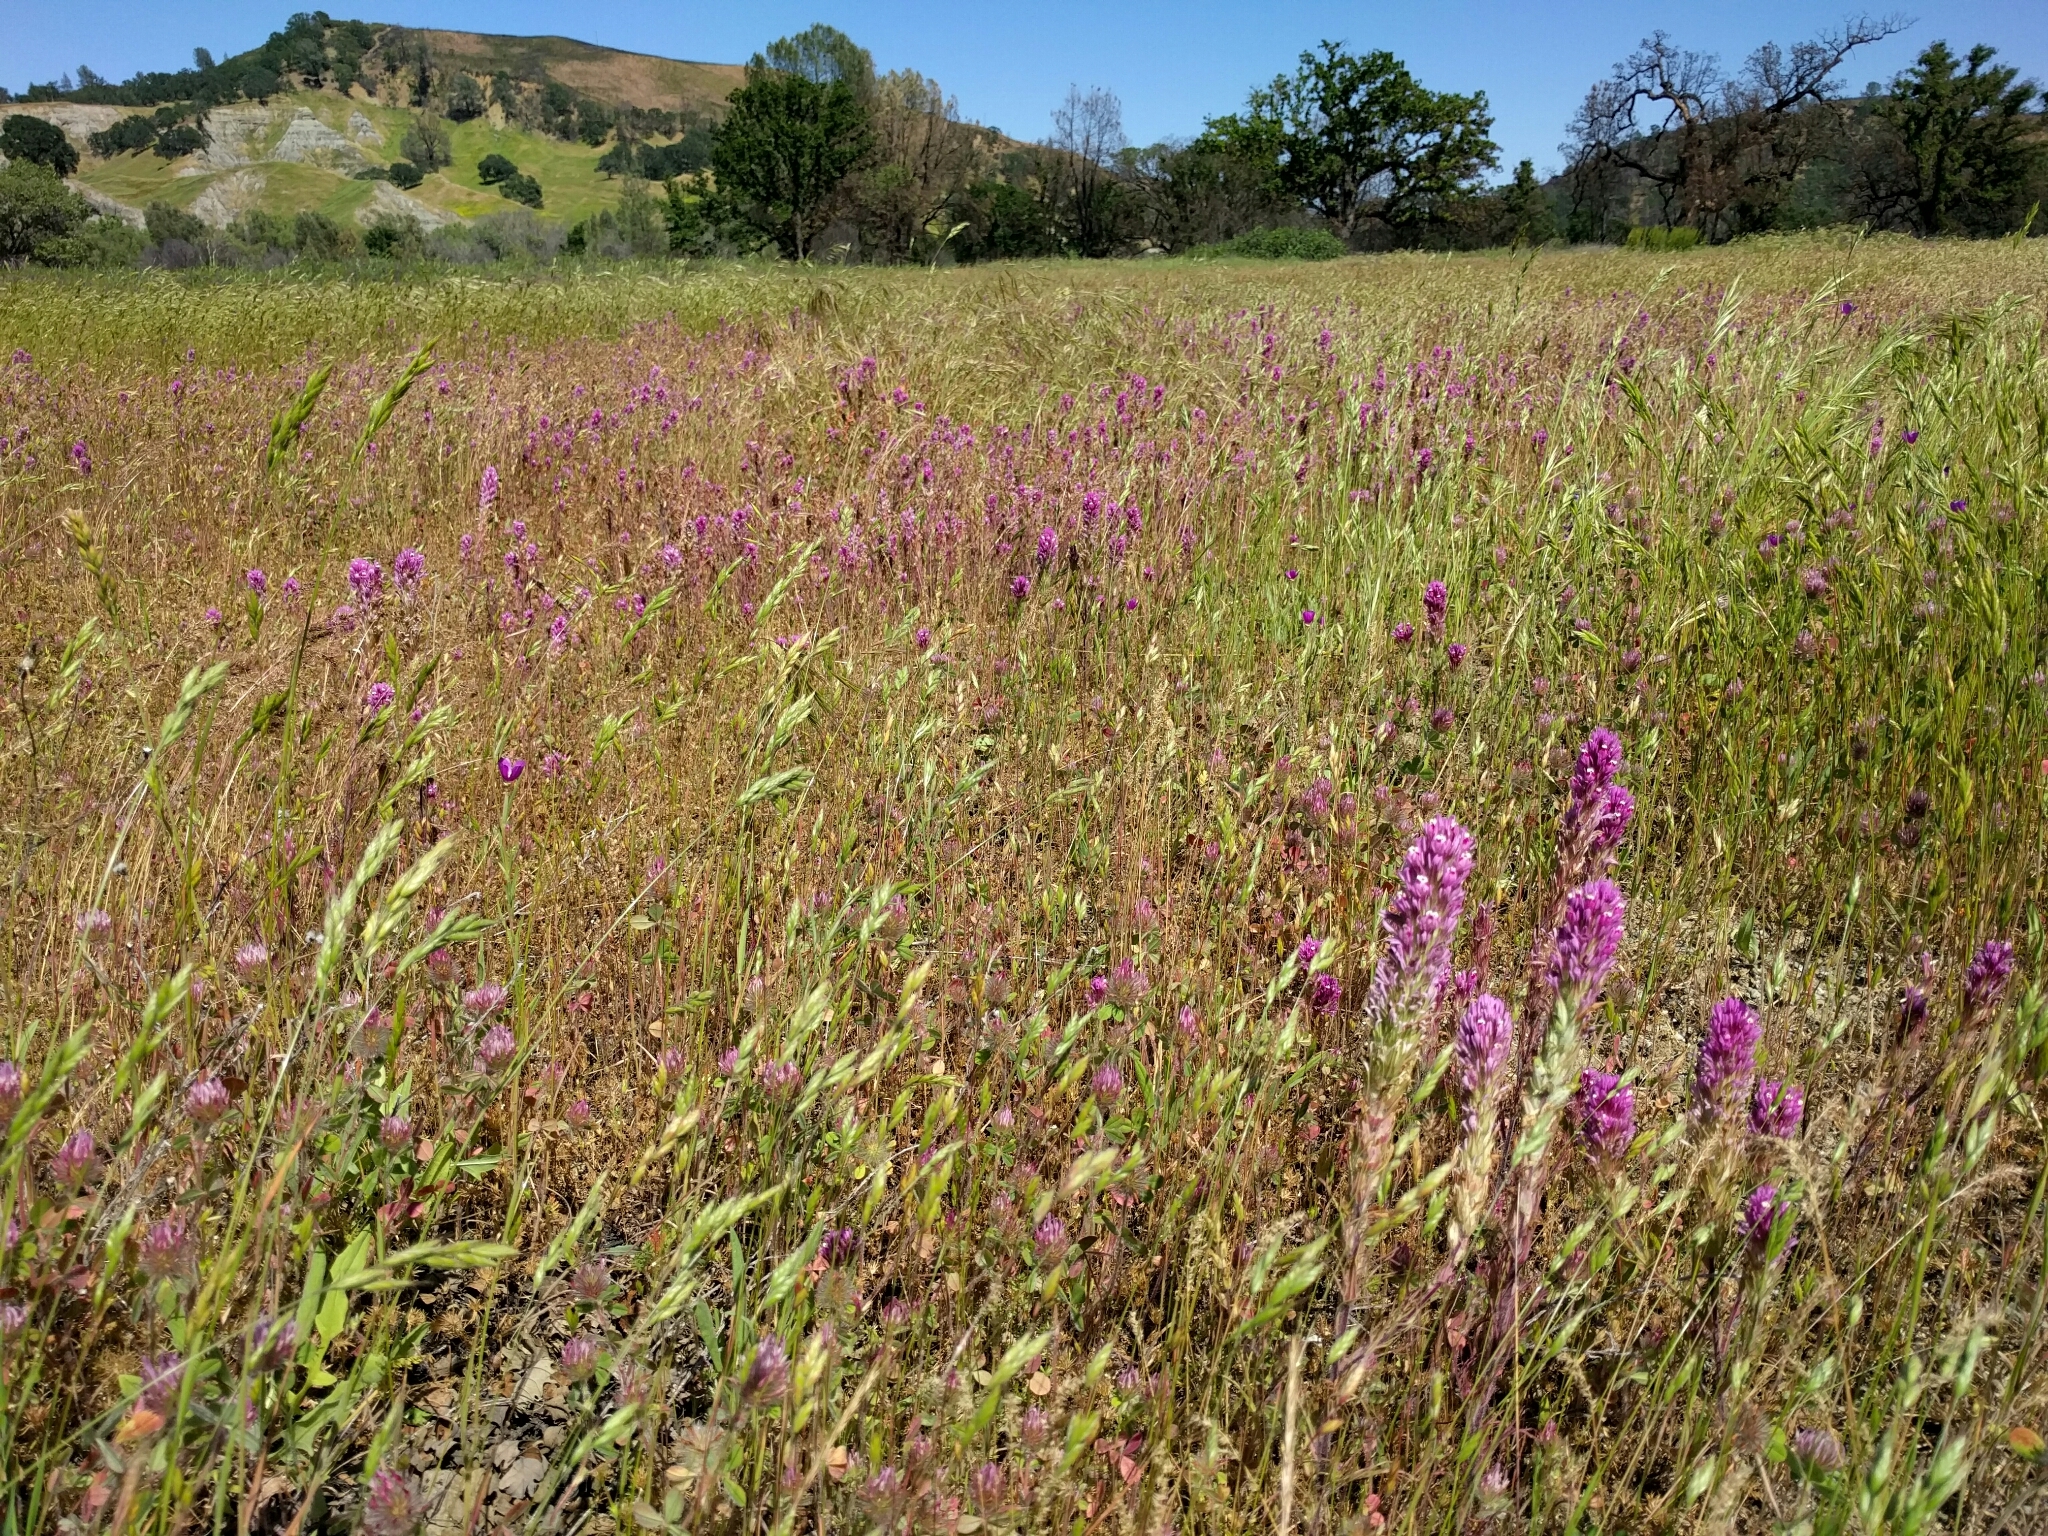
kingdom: Plantae
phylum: Tracheophyta
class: Magnoliopsida
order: Lamiales
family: Orobanchaceae
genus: Castilleja
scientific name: Castilleja exserta
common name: Purple owl-clover
